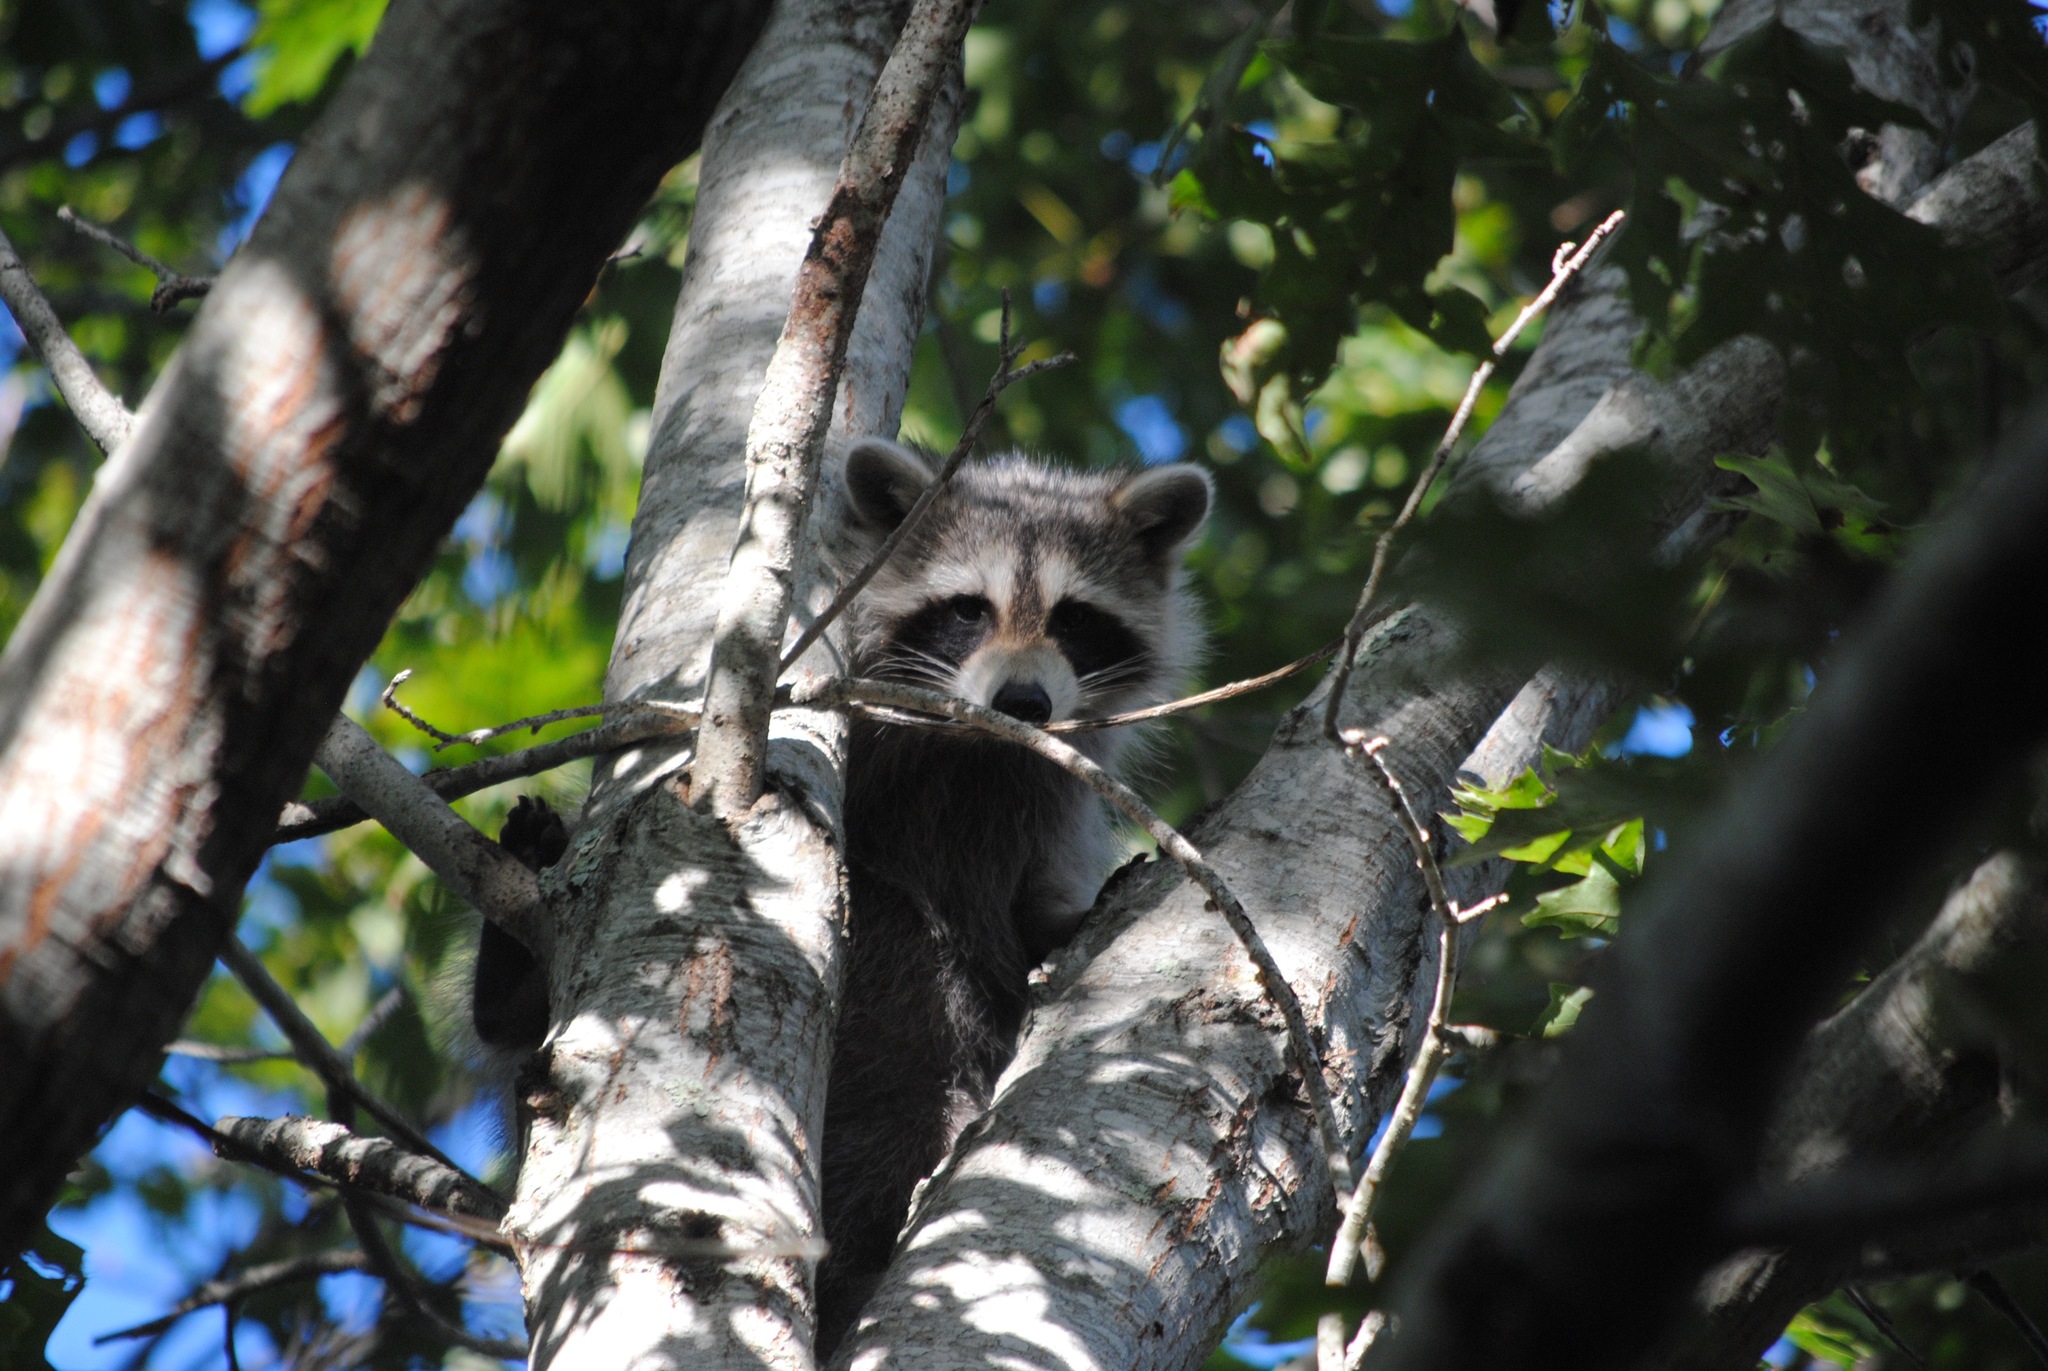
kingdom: Animalia
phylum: Chordata
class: Mammalia
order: Carnivora
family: Procyonidae
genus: Procyon
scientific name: Procyon lotor
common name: Raccoon
